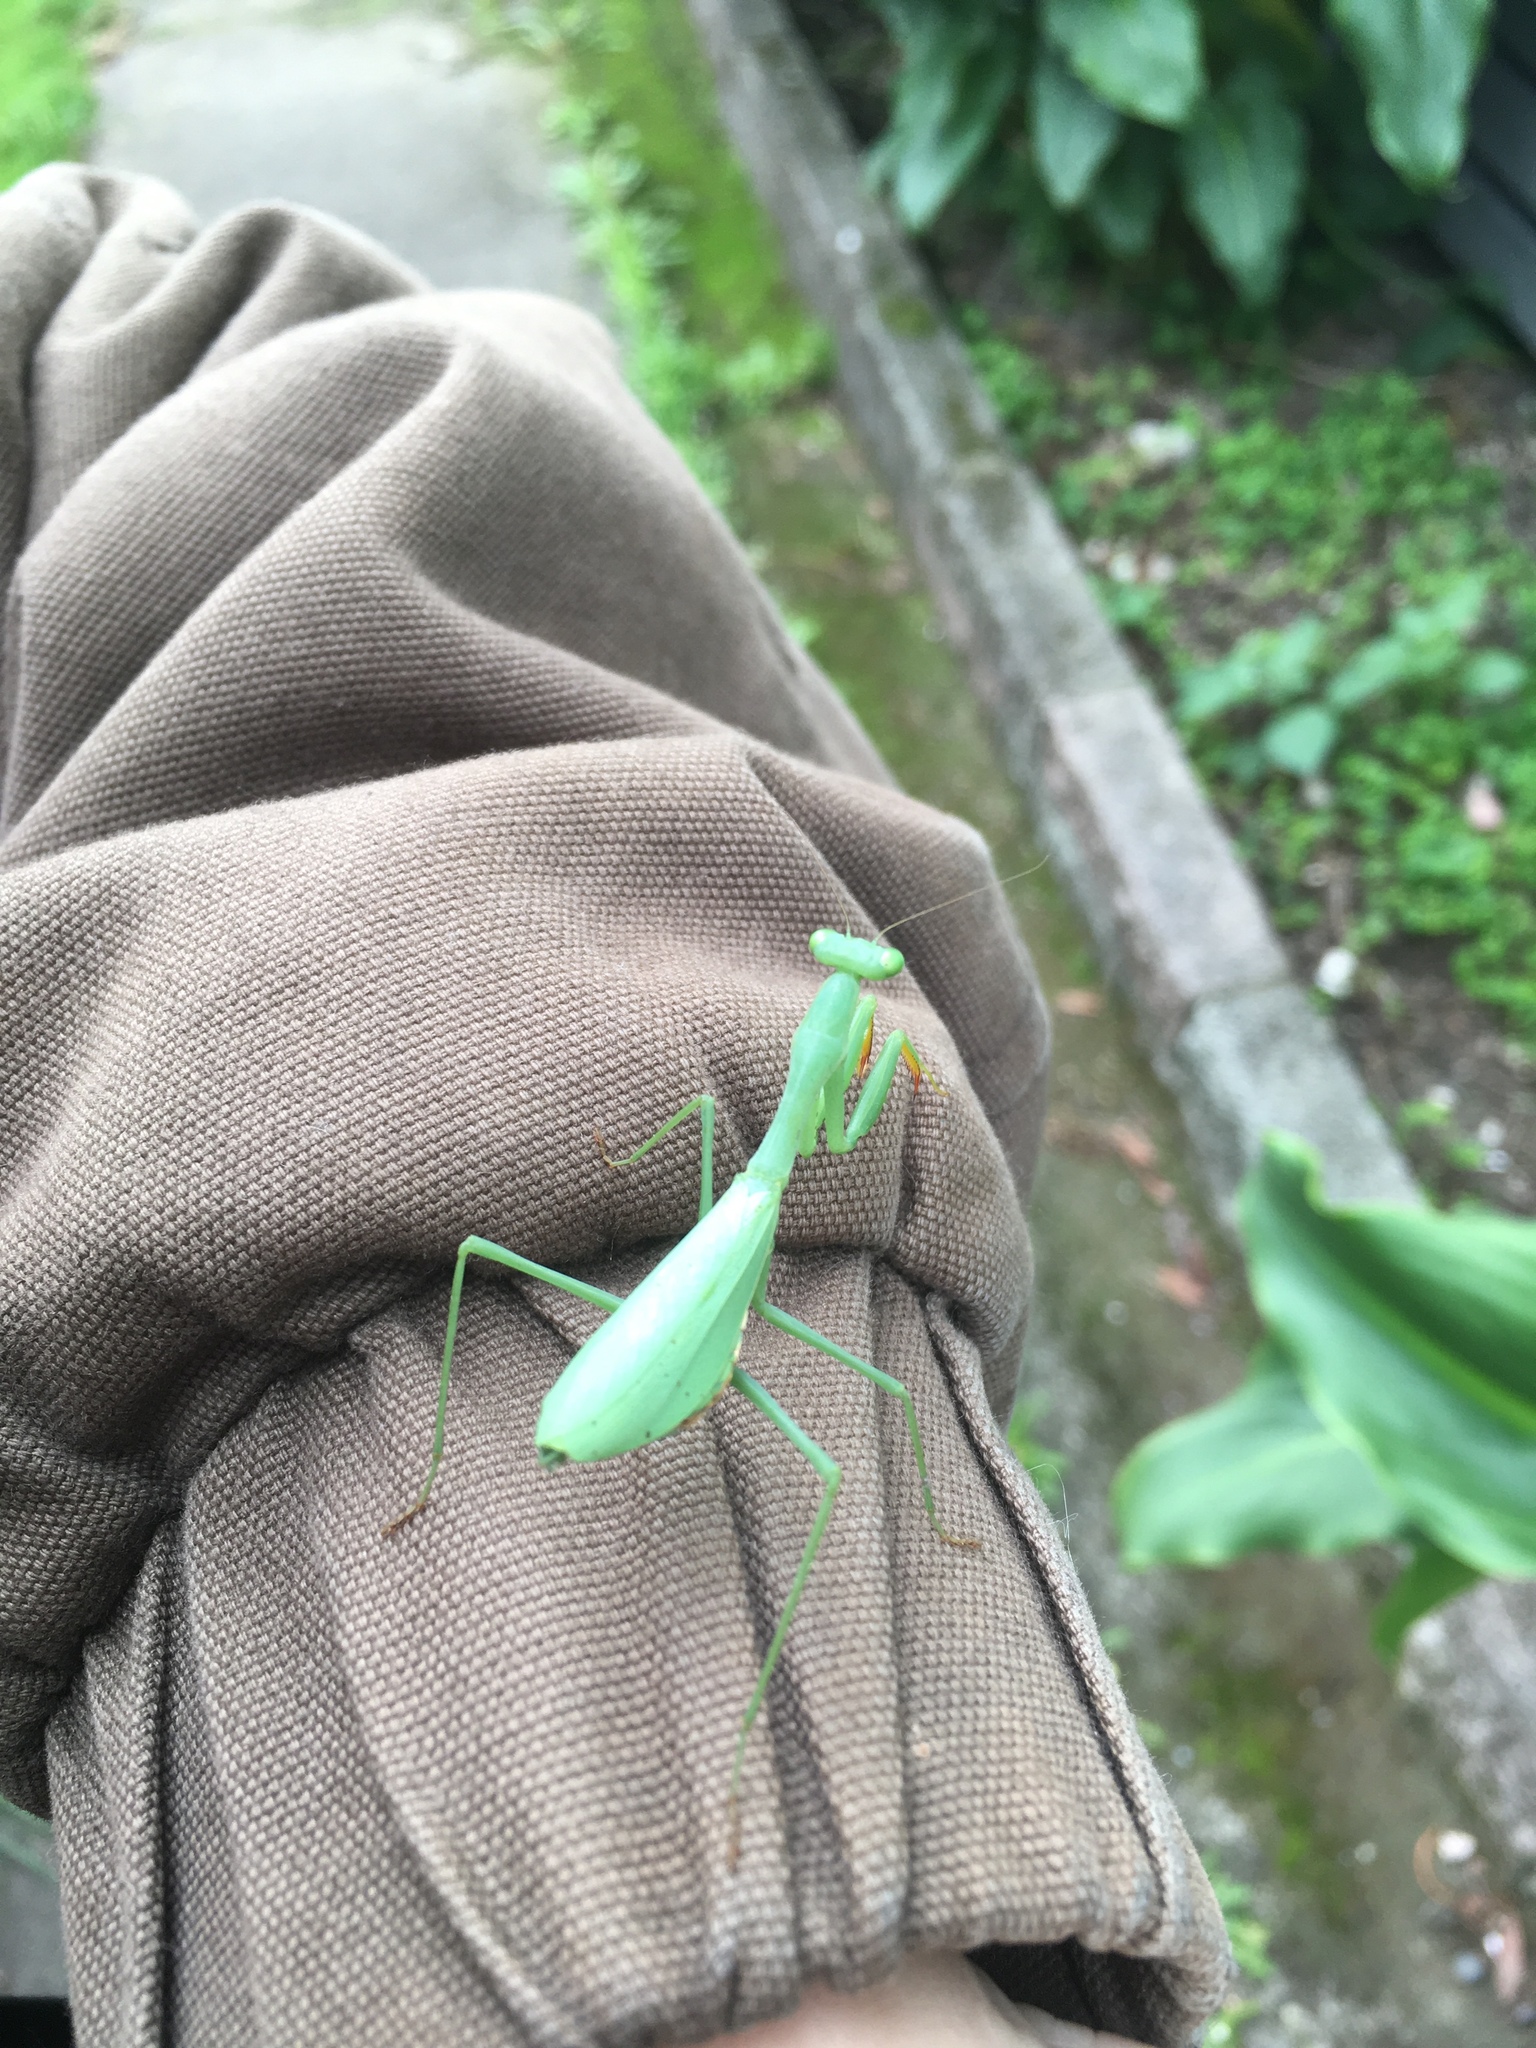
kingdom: Animalia
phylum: Arthropoda
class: Insecta
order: Mantodea
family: Miomantidae
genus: Miomantis
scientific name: Miomantis caffra
